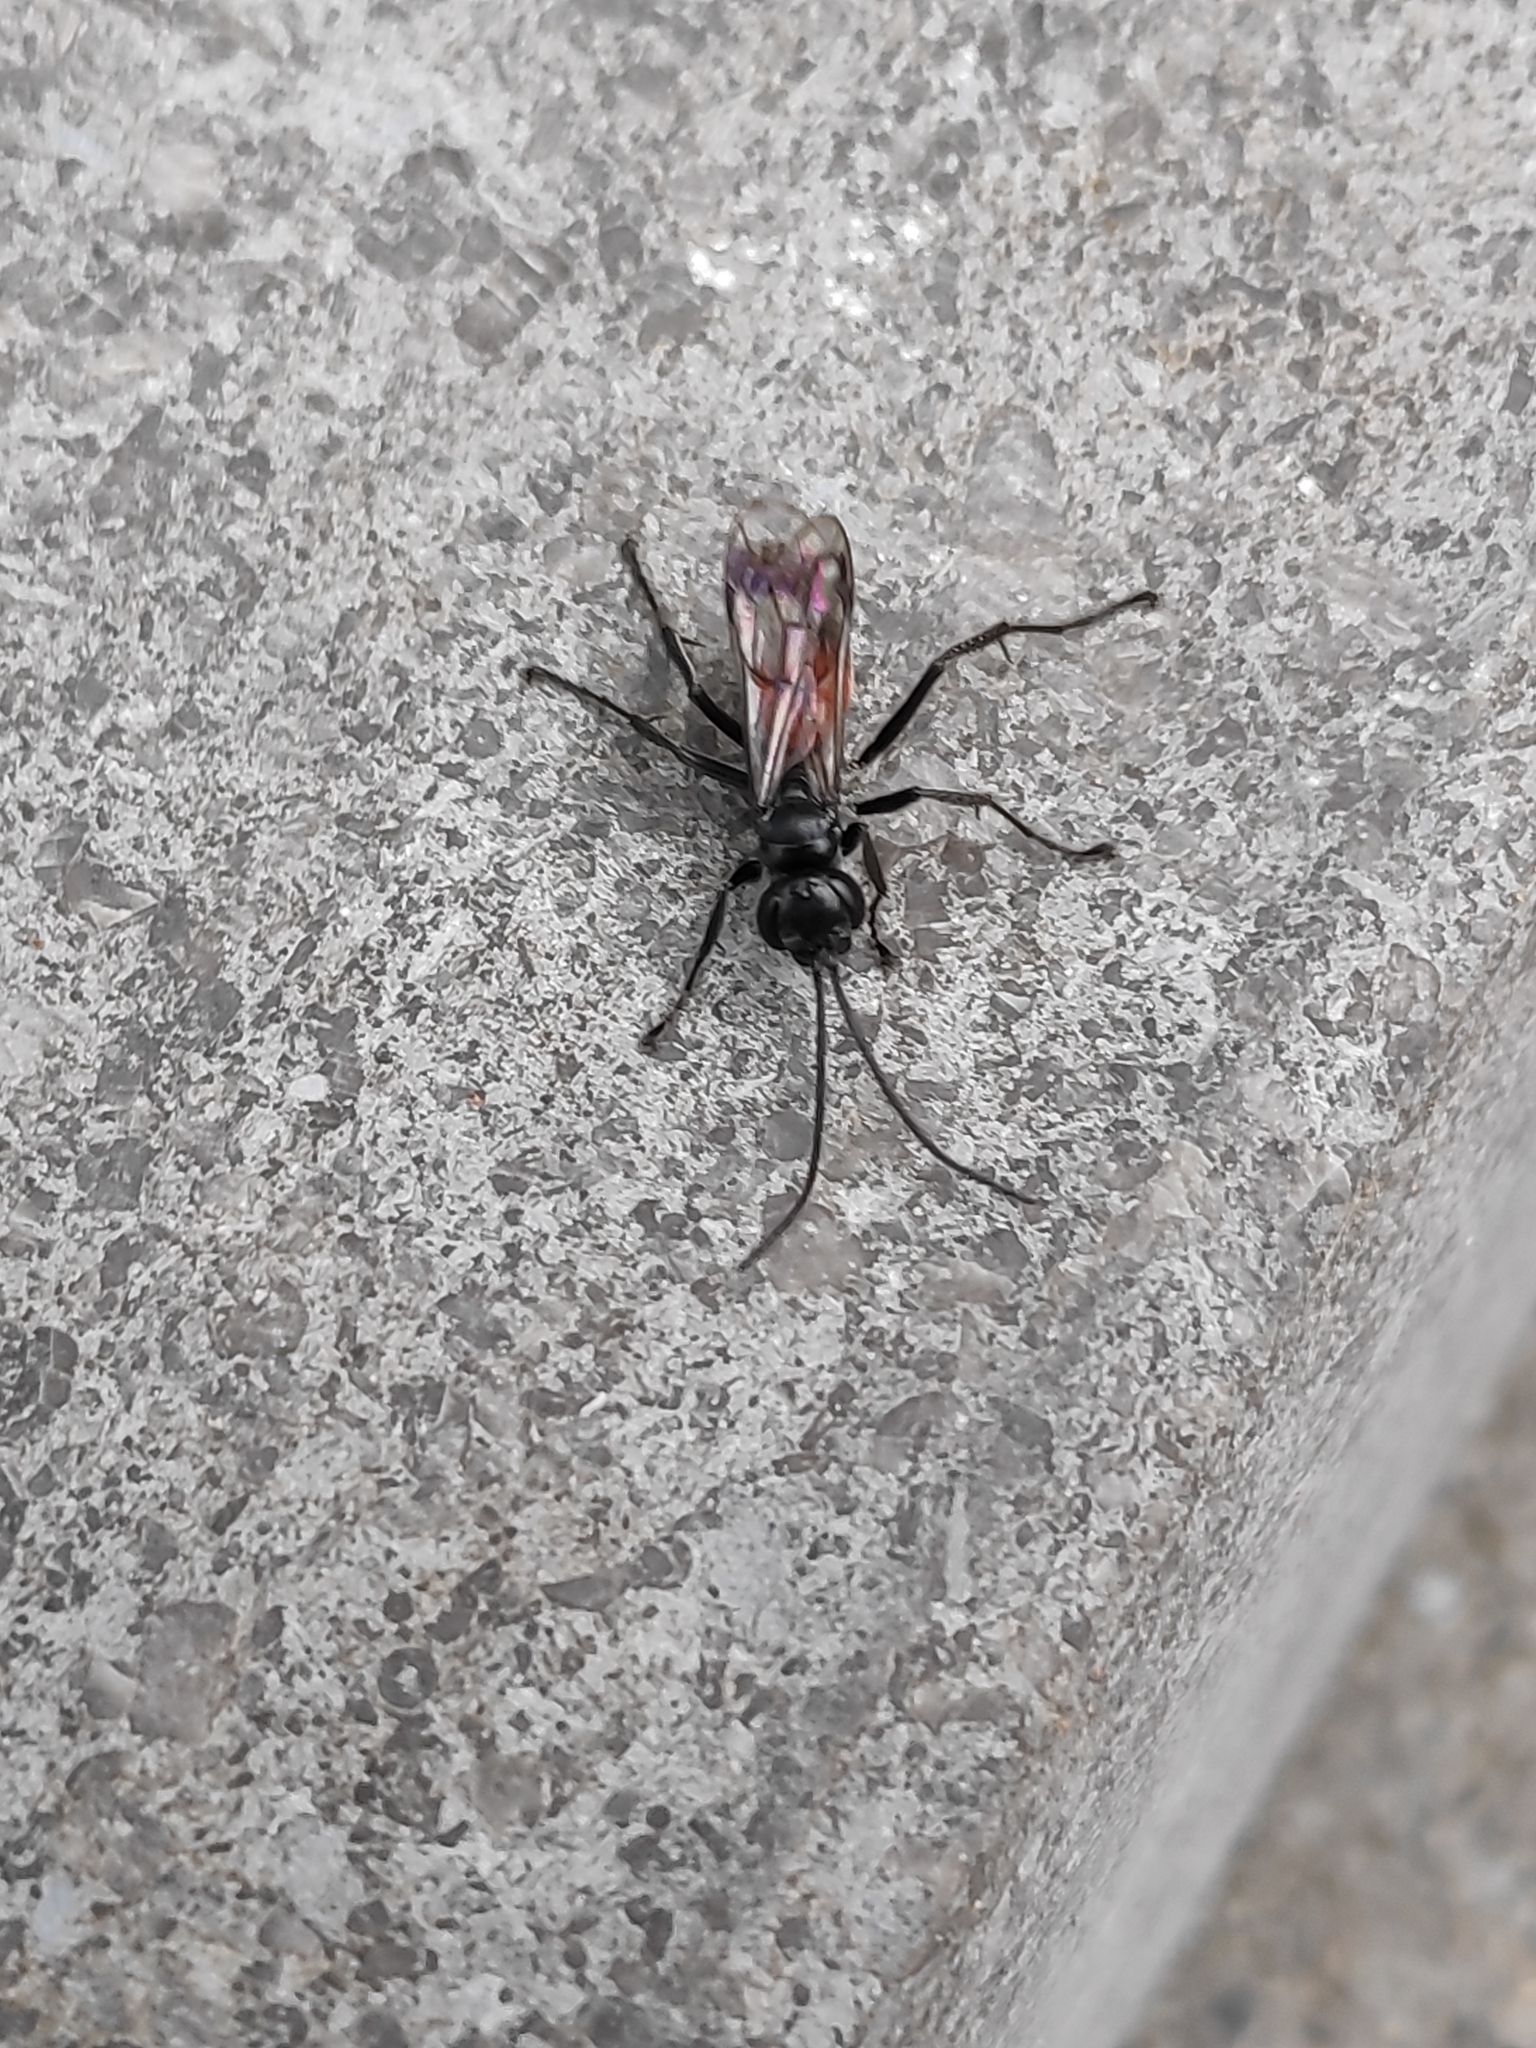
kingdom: Animalia
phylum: Arthropoda
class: Insecta
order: Hymenoptera
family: Pompilidae
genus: Caliadurgus
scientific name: Caliadurgus fasciatellus
